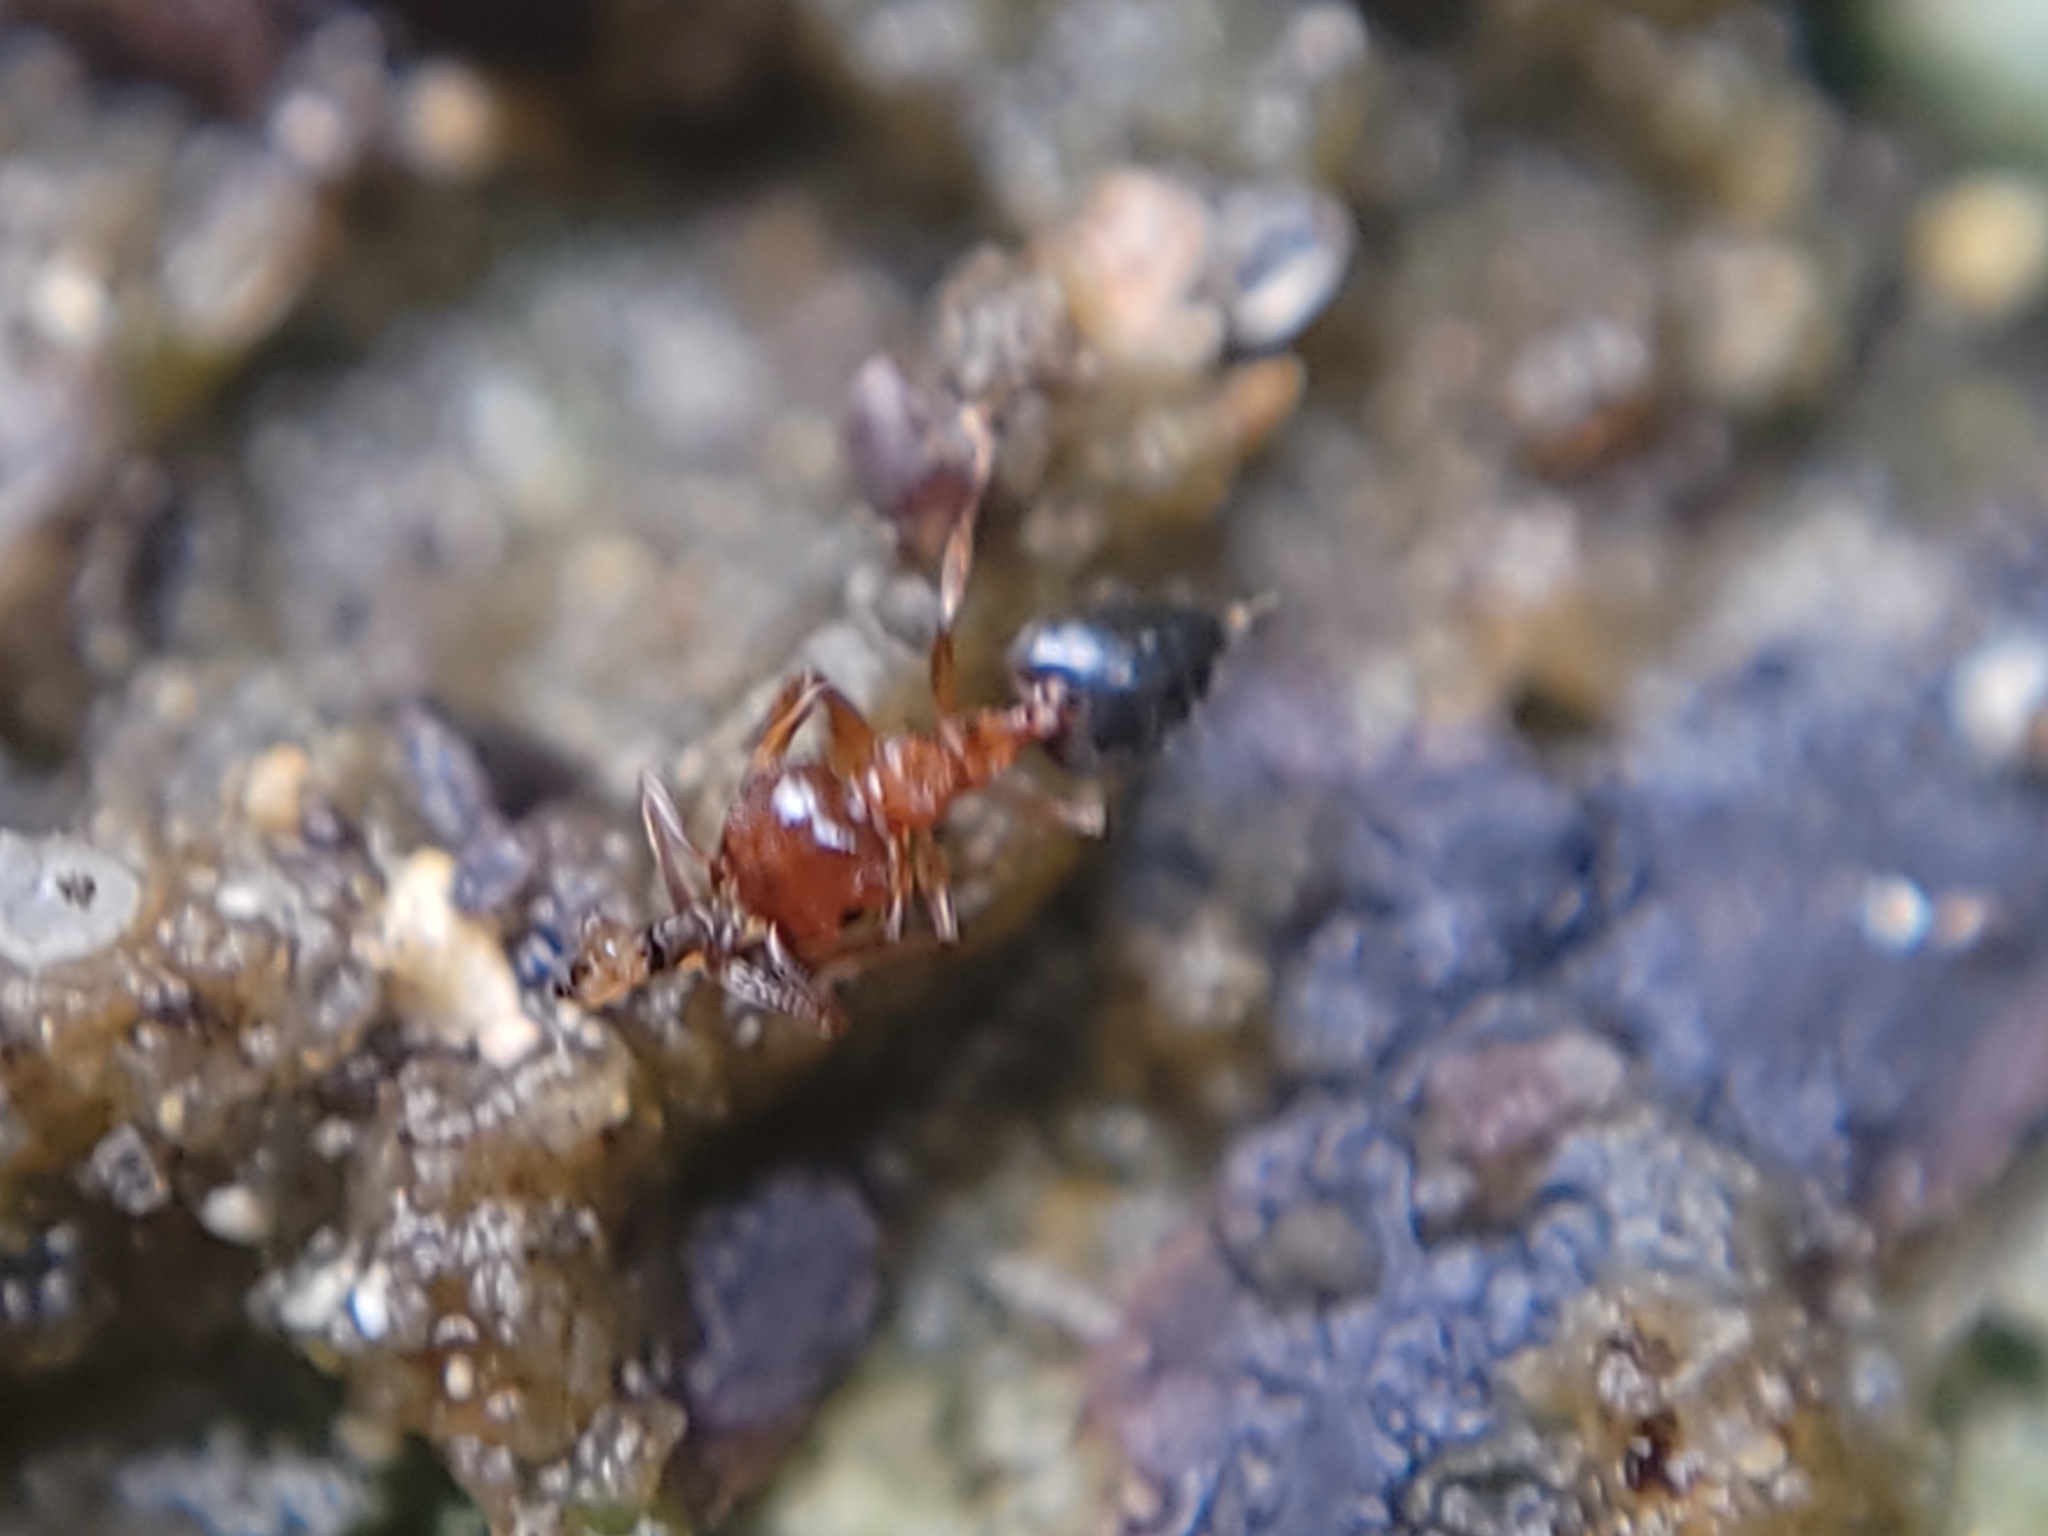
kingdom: Animalia
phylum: Arthropoda
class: Insecta
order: Hymenoptera
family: Formicidae
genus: Crematogaster
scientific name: Crematogaster pinicola
